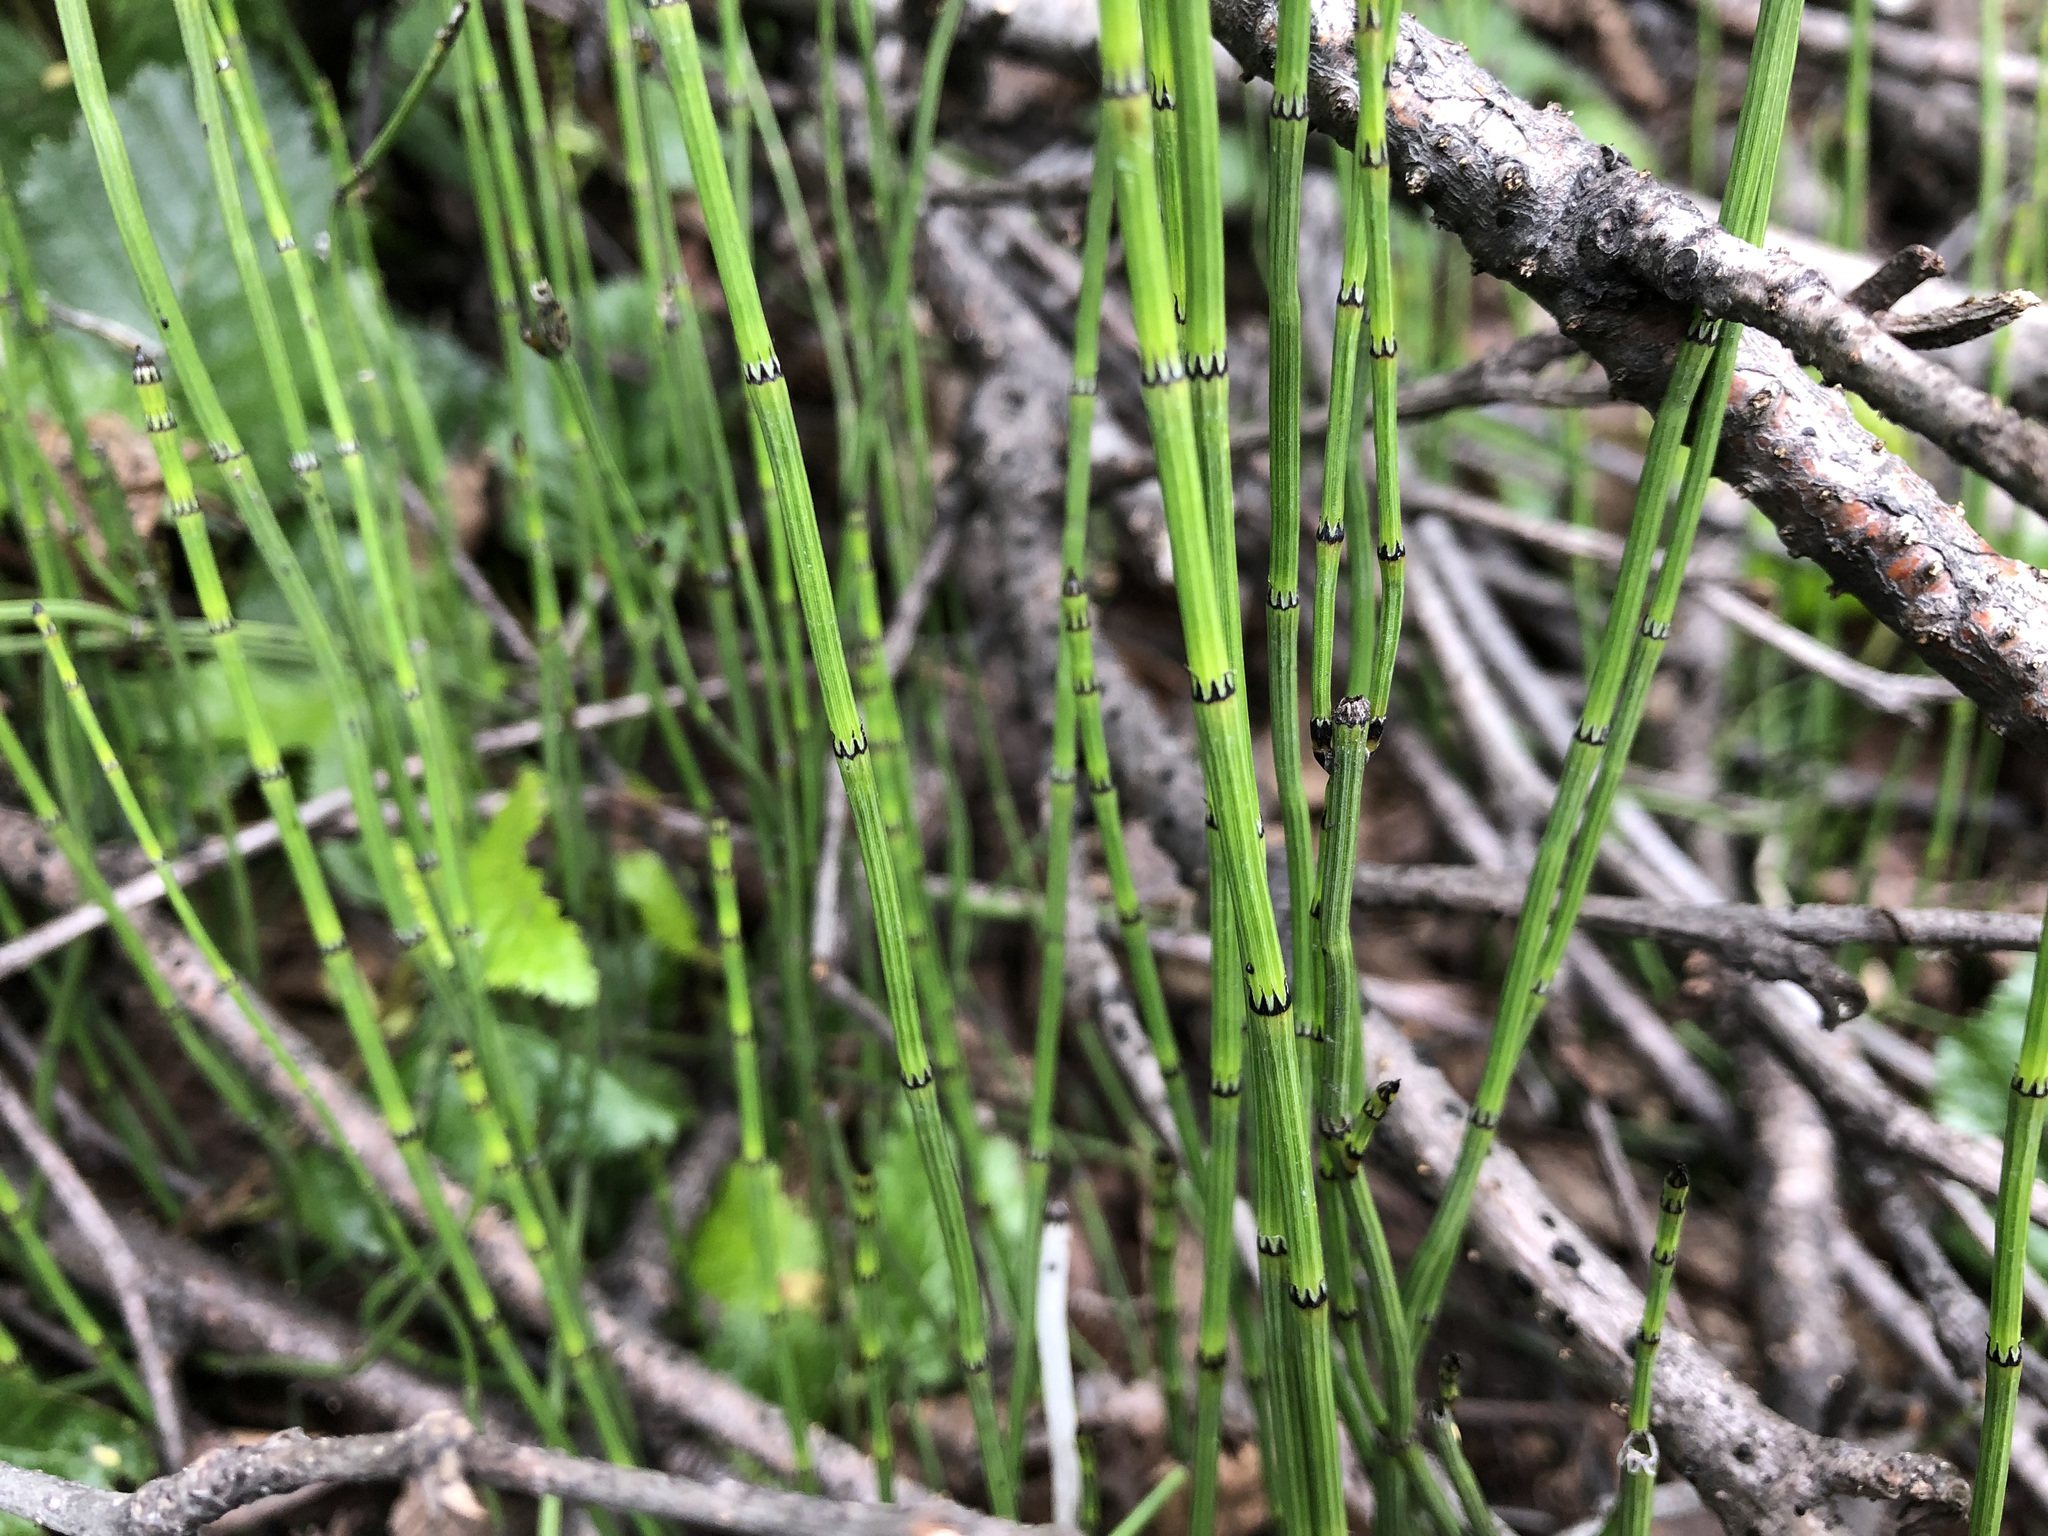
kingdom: Plantae
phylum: Tracheophyta
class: Polypodiopsida
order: Equisetales
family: Equisetaceae
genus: Equisetum
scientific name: Equisetum variegatum
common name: Variegated horsetail
